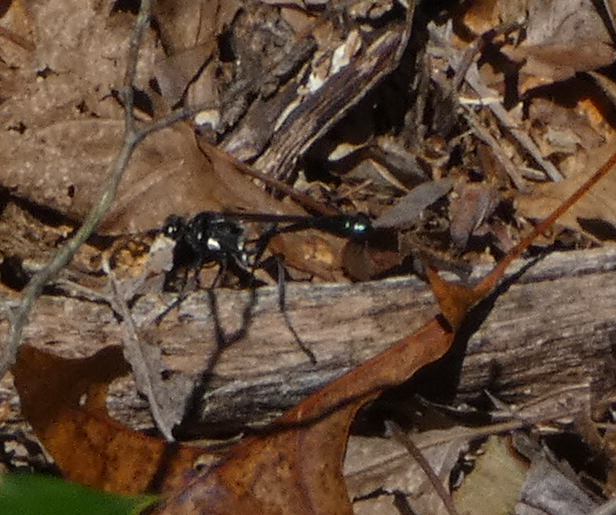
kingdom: Animalia
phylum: Arthropoda
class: Insecta
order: Hymenoptera
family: Sphecidae
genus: Eremnophila
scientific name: Eremnophila aureonotata
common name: Gold-marked thread-waisted wasp
